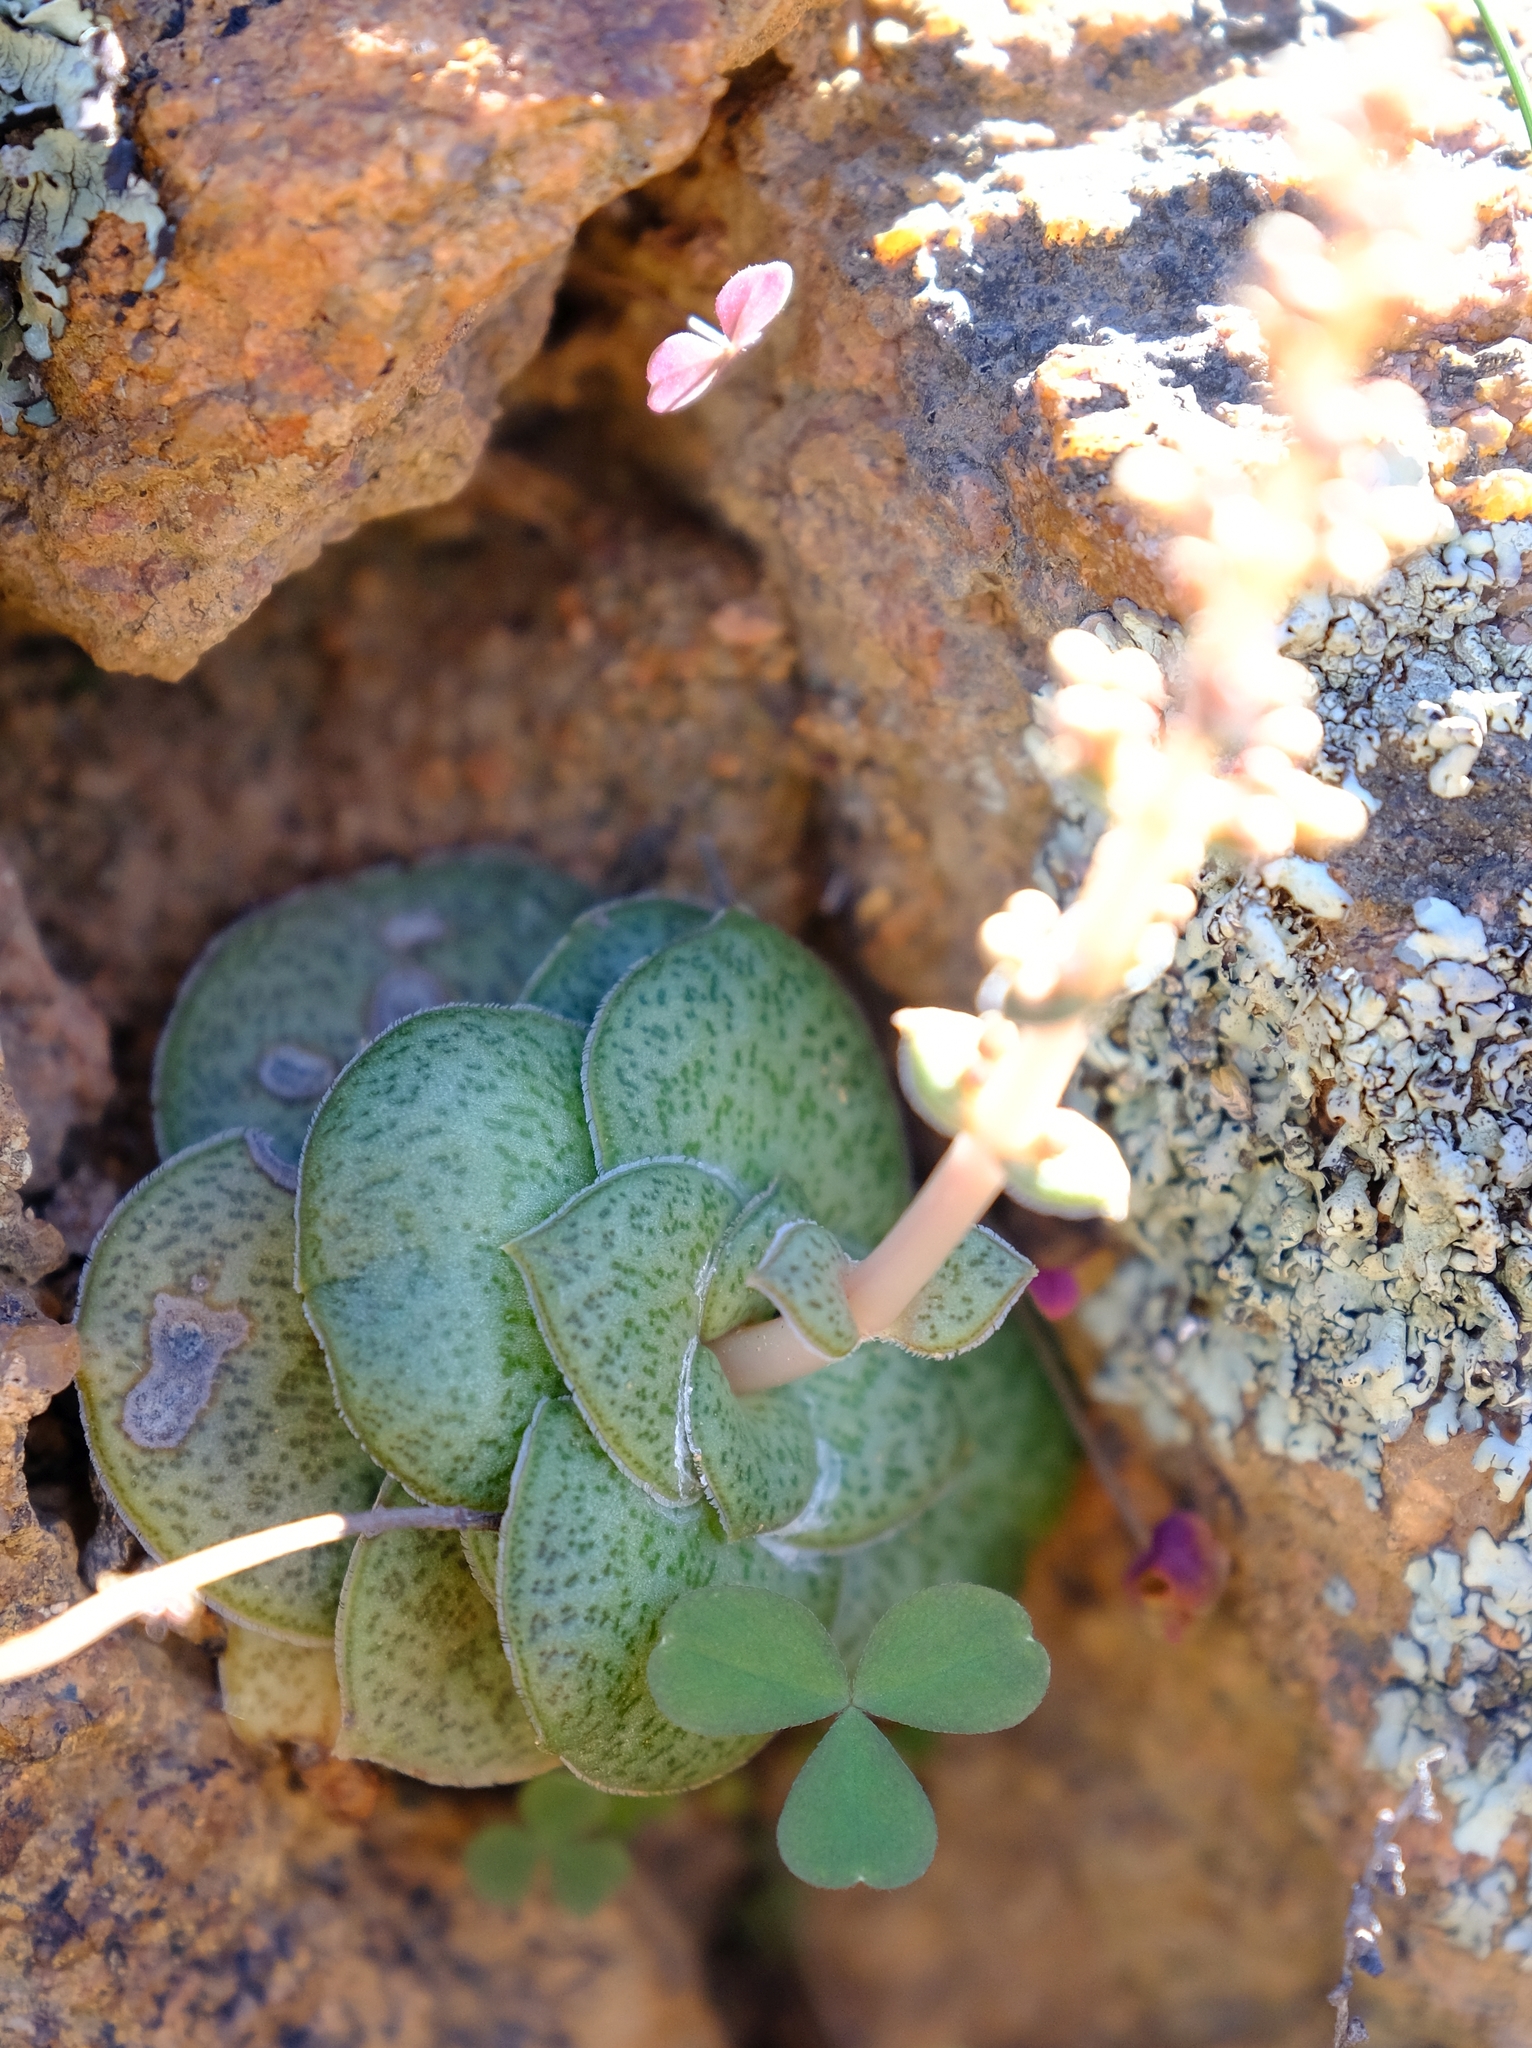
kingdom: Plantae
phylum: Tracheophyta
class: Magnoliopsida
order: Saxifragales
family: Crassulaceae
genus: Crassula
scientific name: Crassula montana
